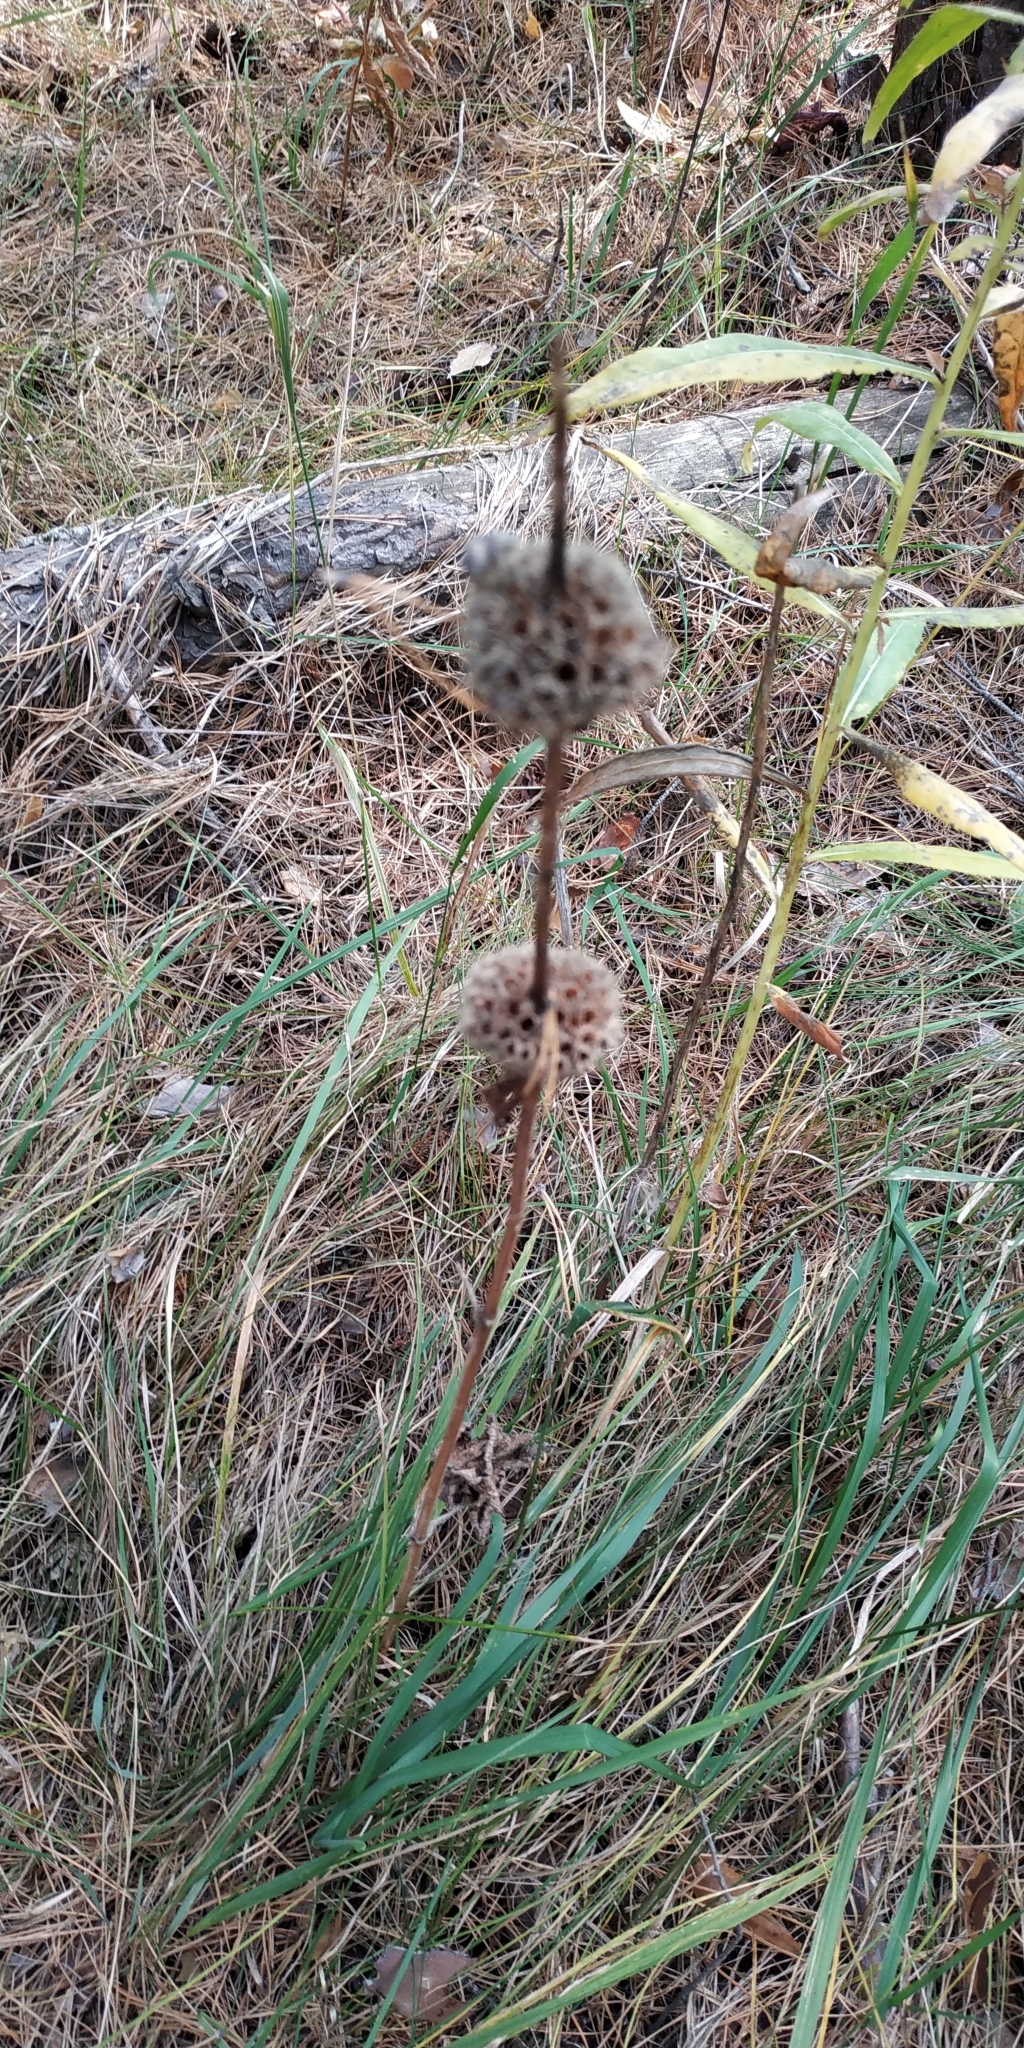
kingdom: Plantae
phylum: Tracheophyta
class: Magnoliopsida
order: Lamiales
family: Lamiaceae
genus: Phlomoides
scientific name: Phlomoides tuberosa
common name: Tuberous jerusalem sage
